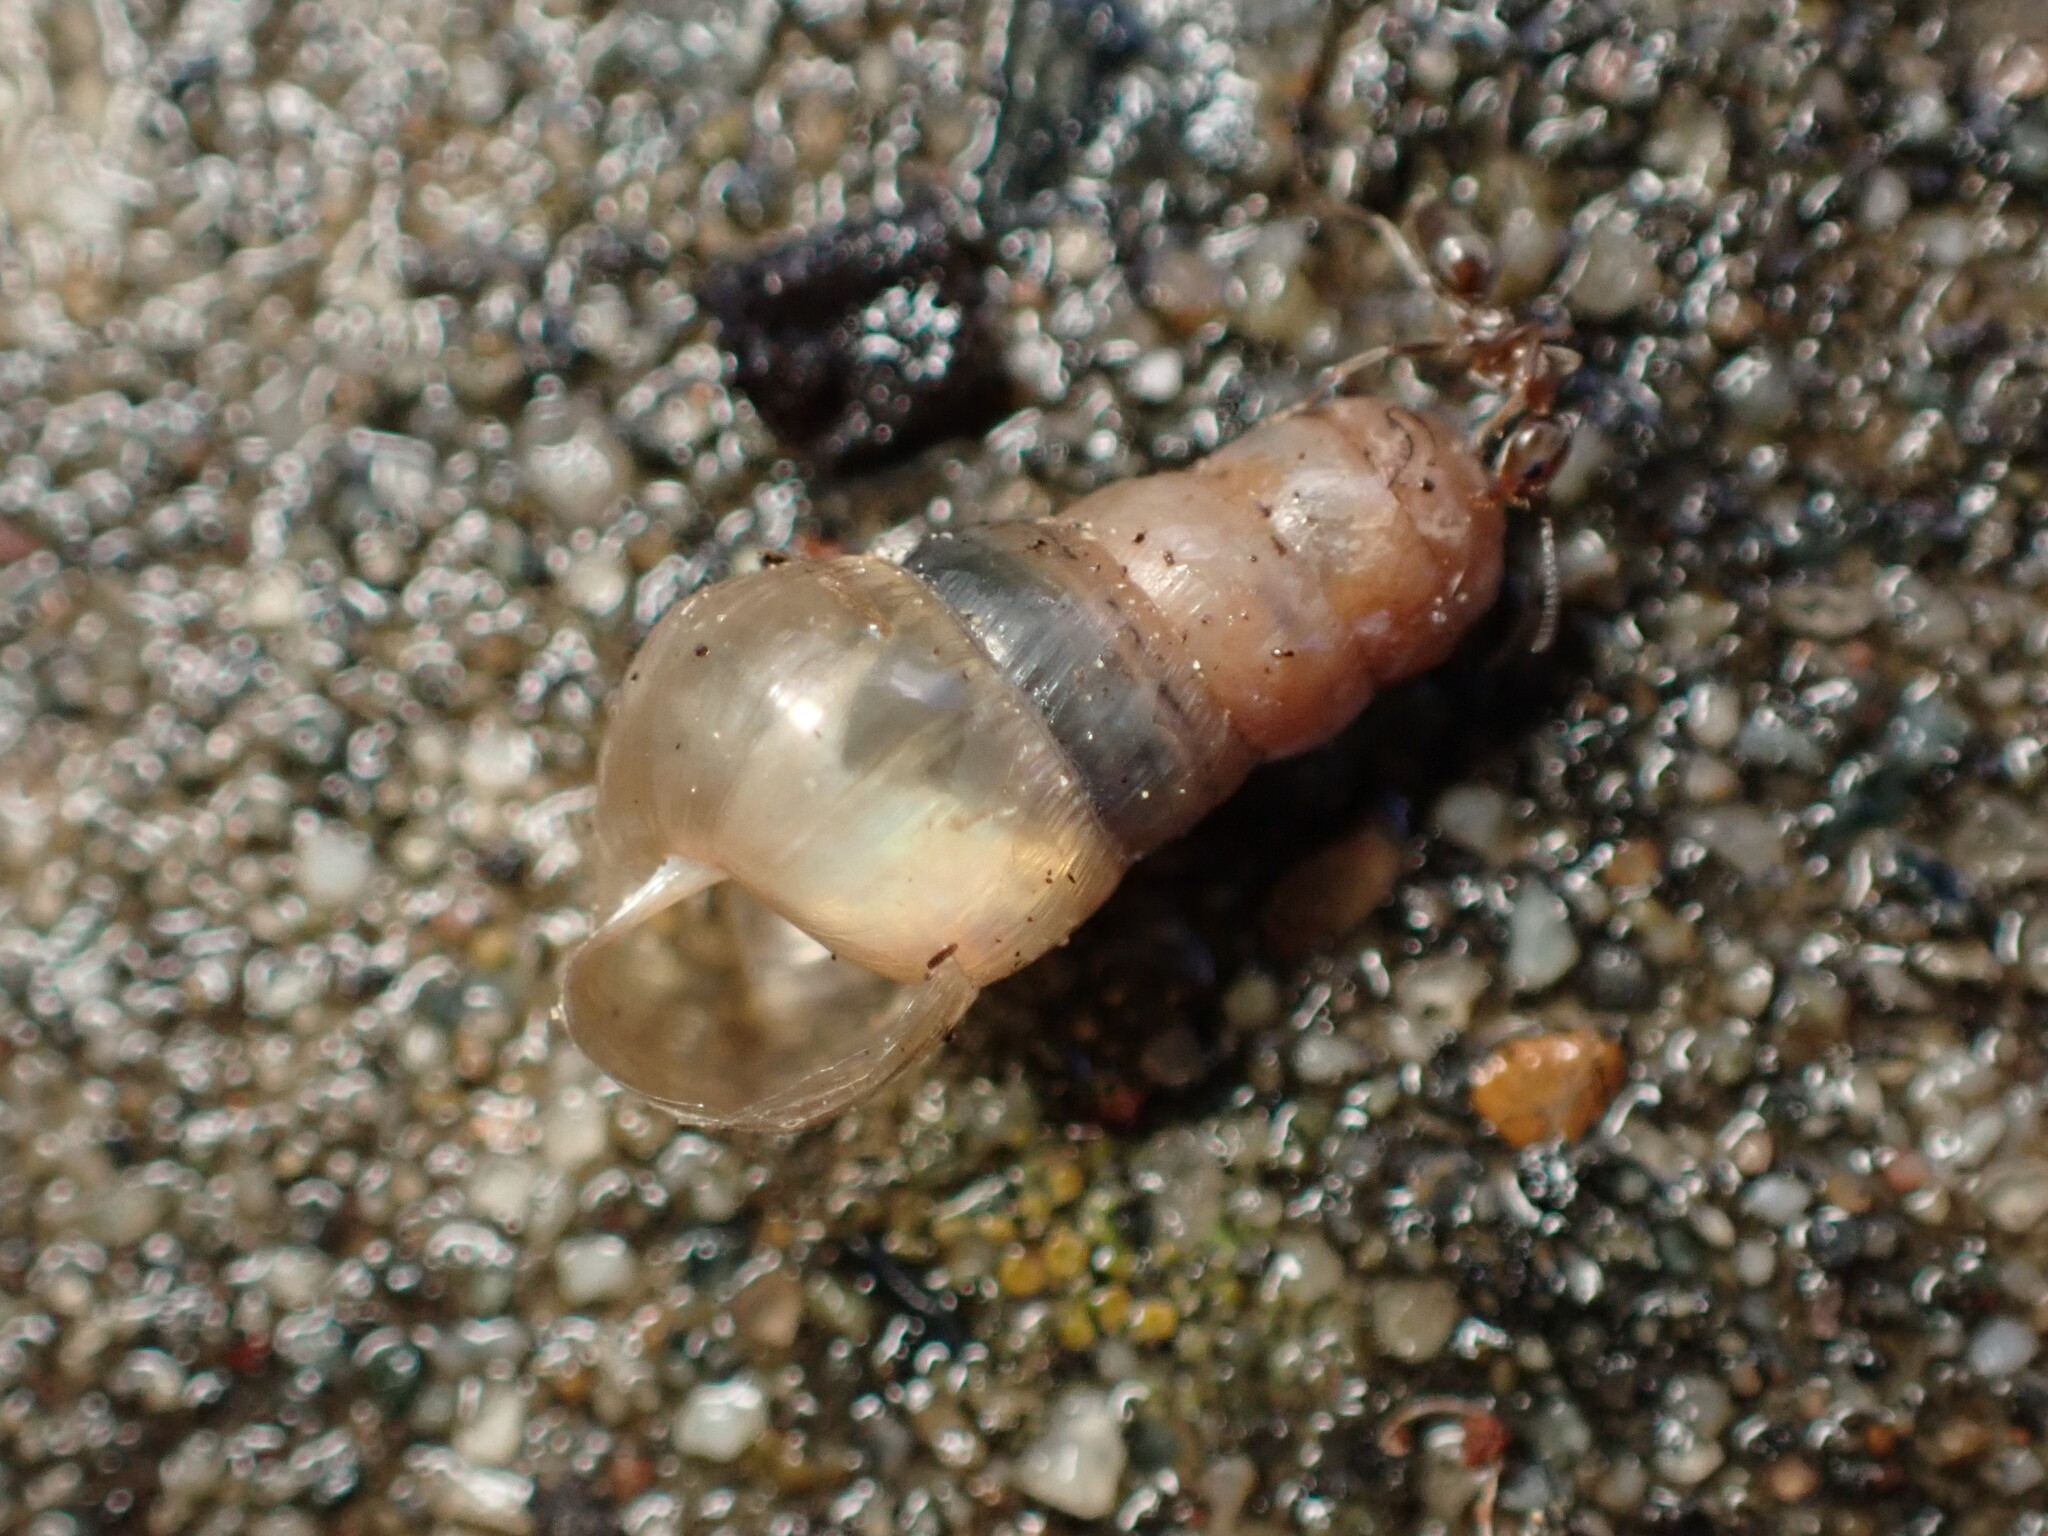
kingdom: Animalia
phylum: Mollusca
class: Gastropoda
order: Stylommatophora
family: Achatinidae
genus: Rumina
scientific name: Rumina decollata
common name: Decollate snail
